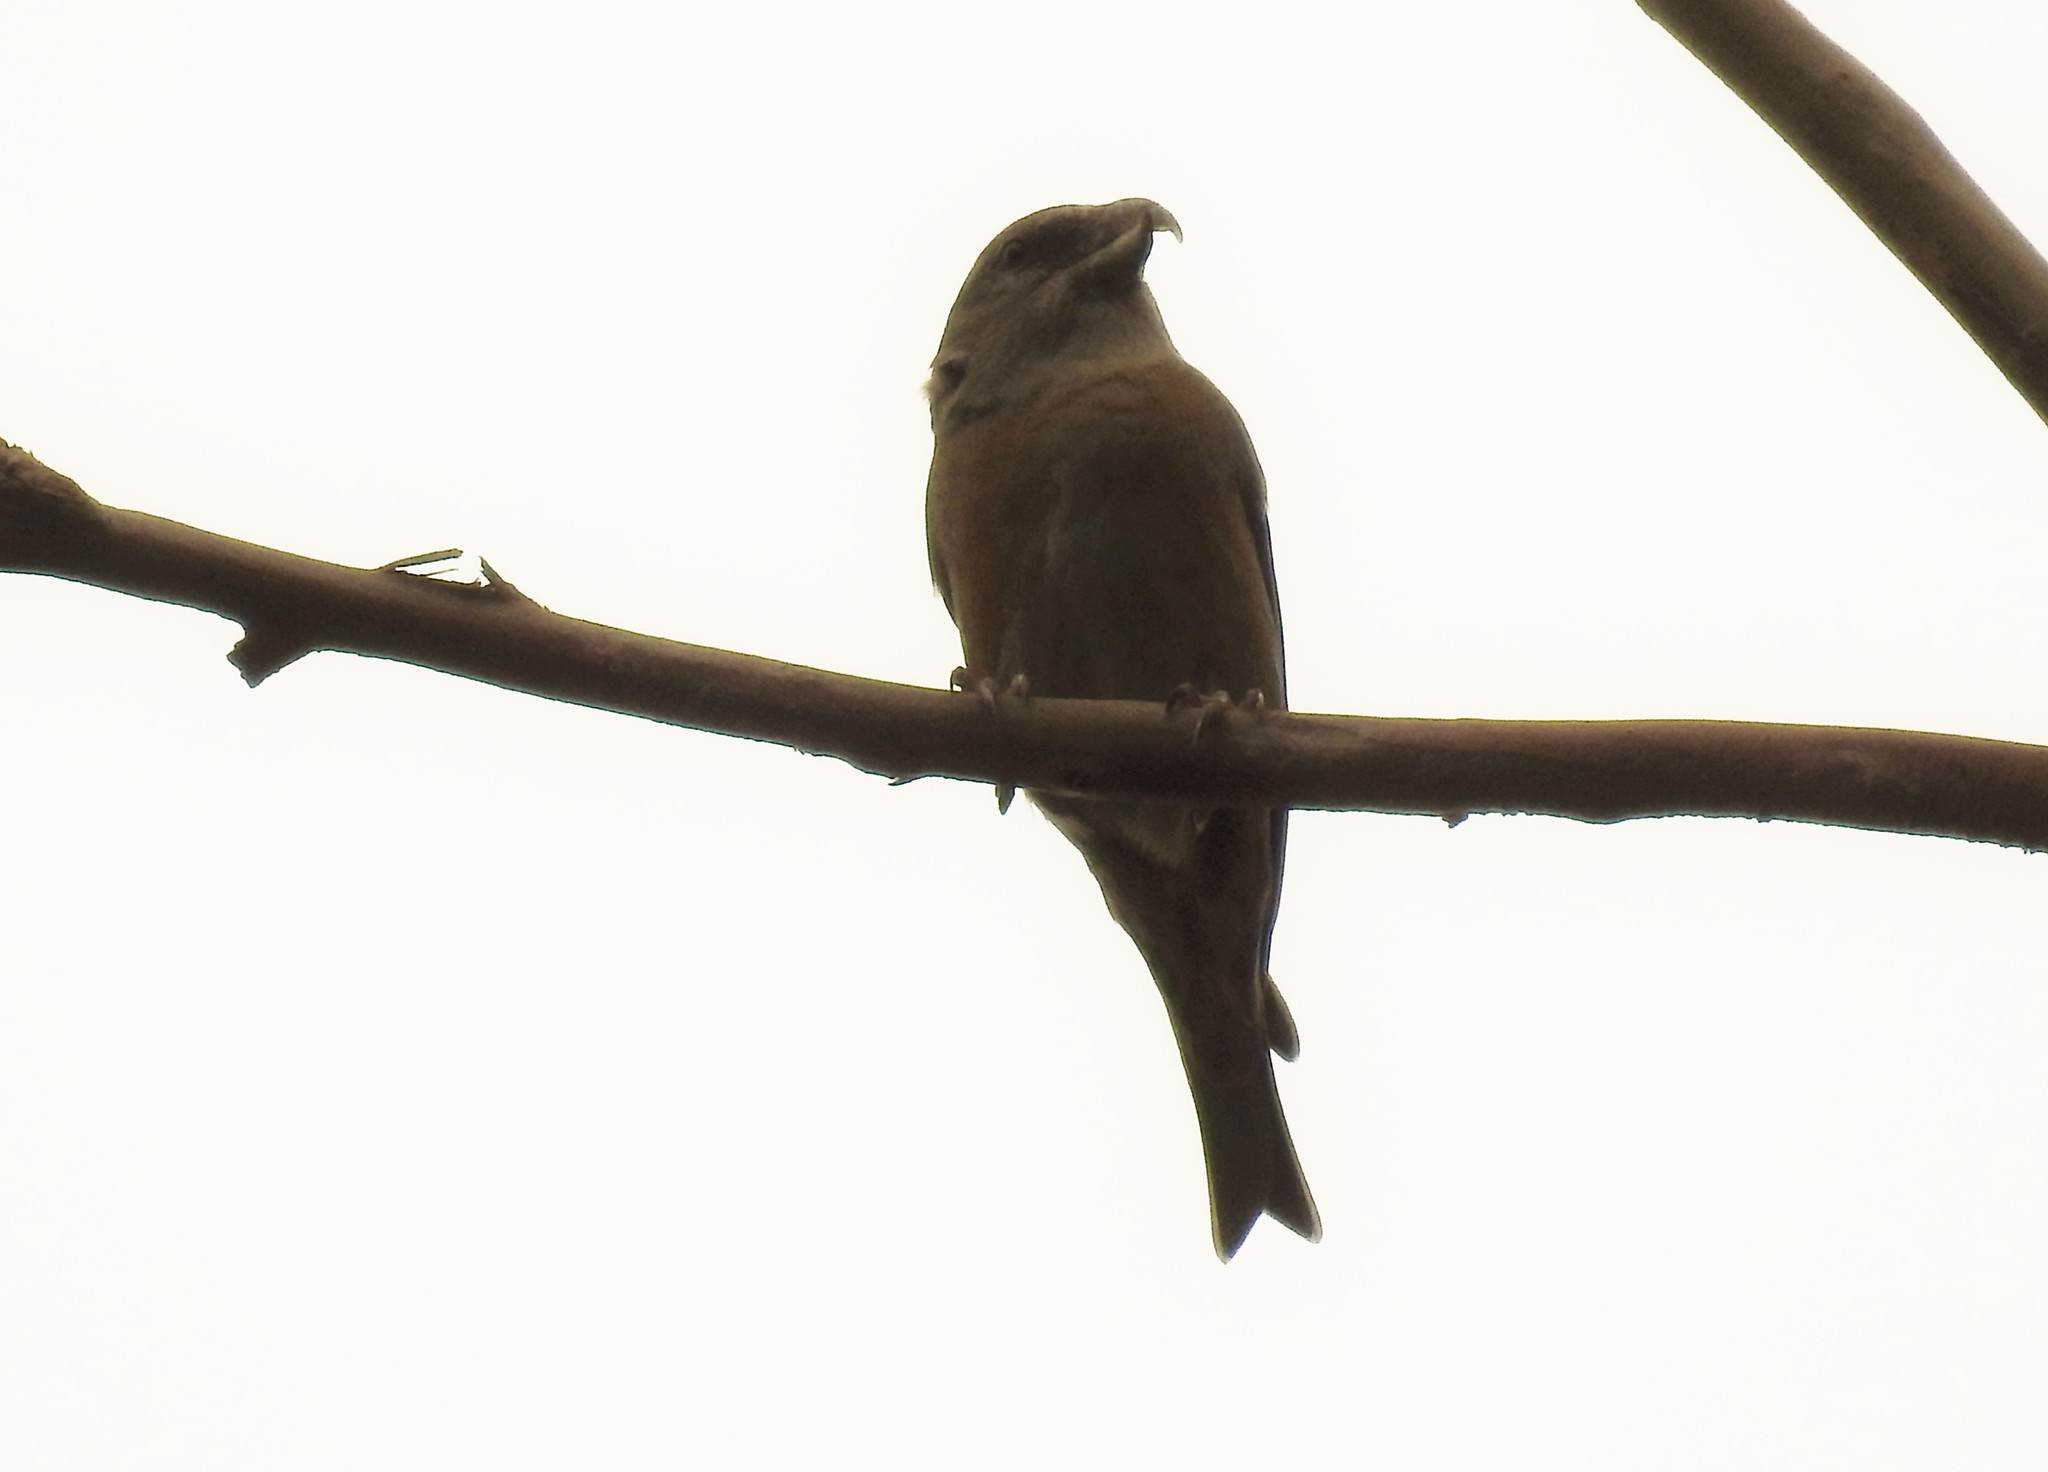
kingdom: Animalia
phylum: Chordata
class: Aves
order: Passeriformes
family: Fringillidae
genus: Loxia
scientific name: Loxia curvirostra
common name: Red crossbill
